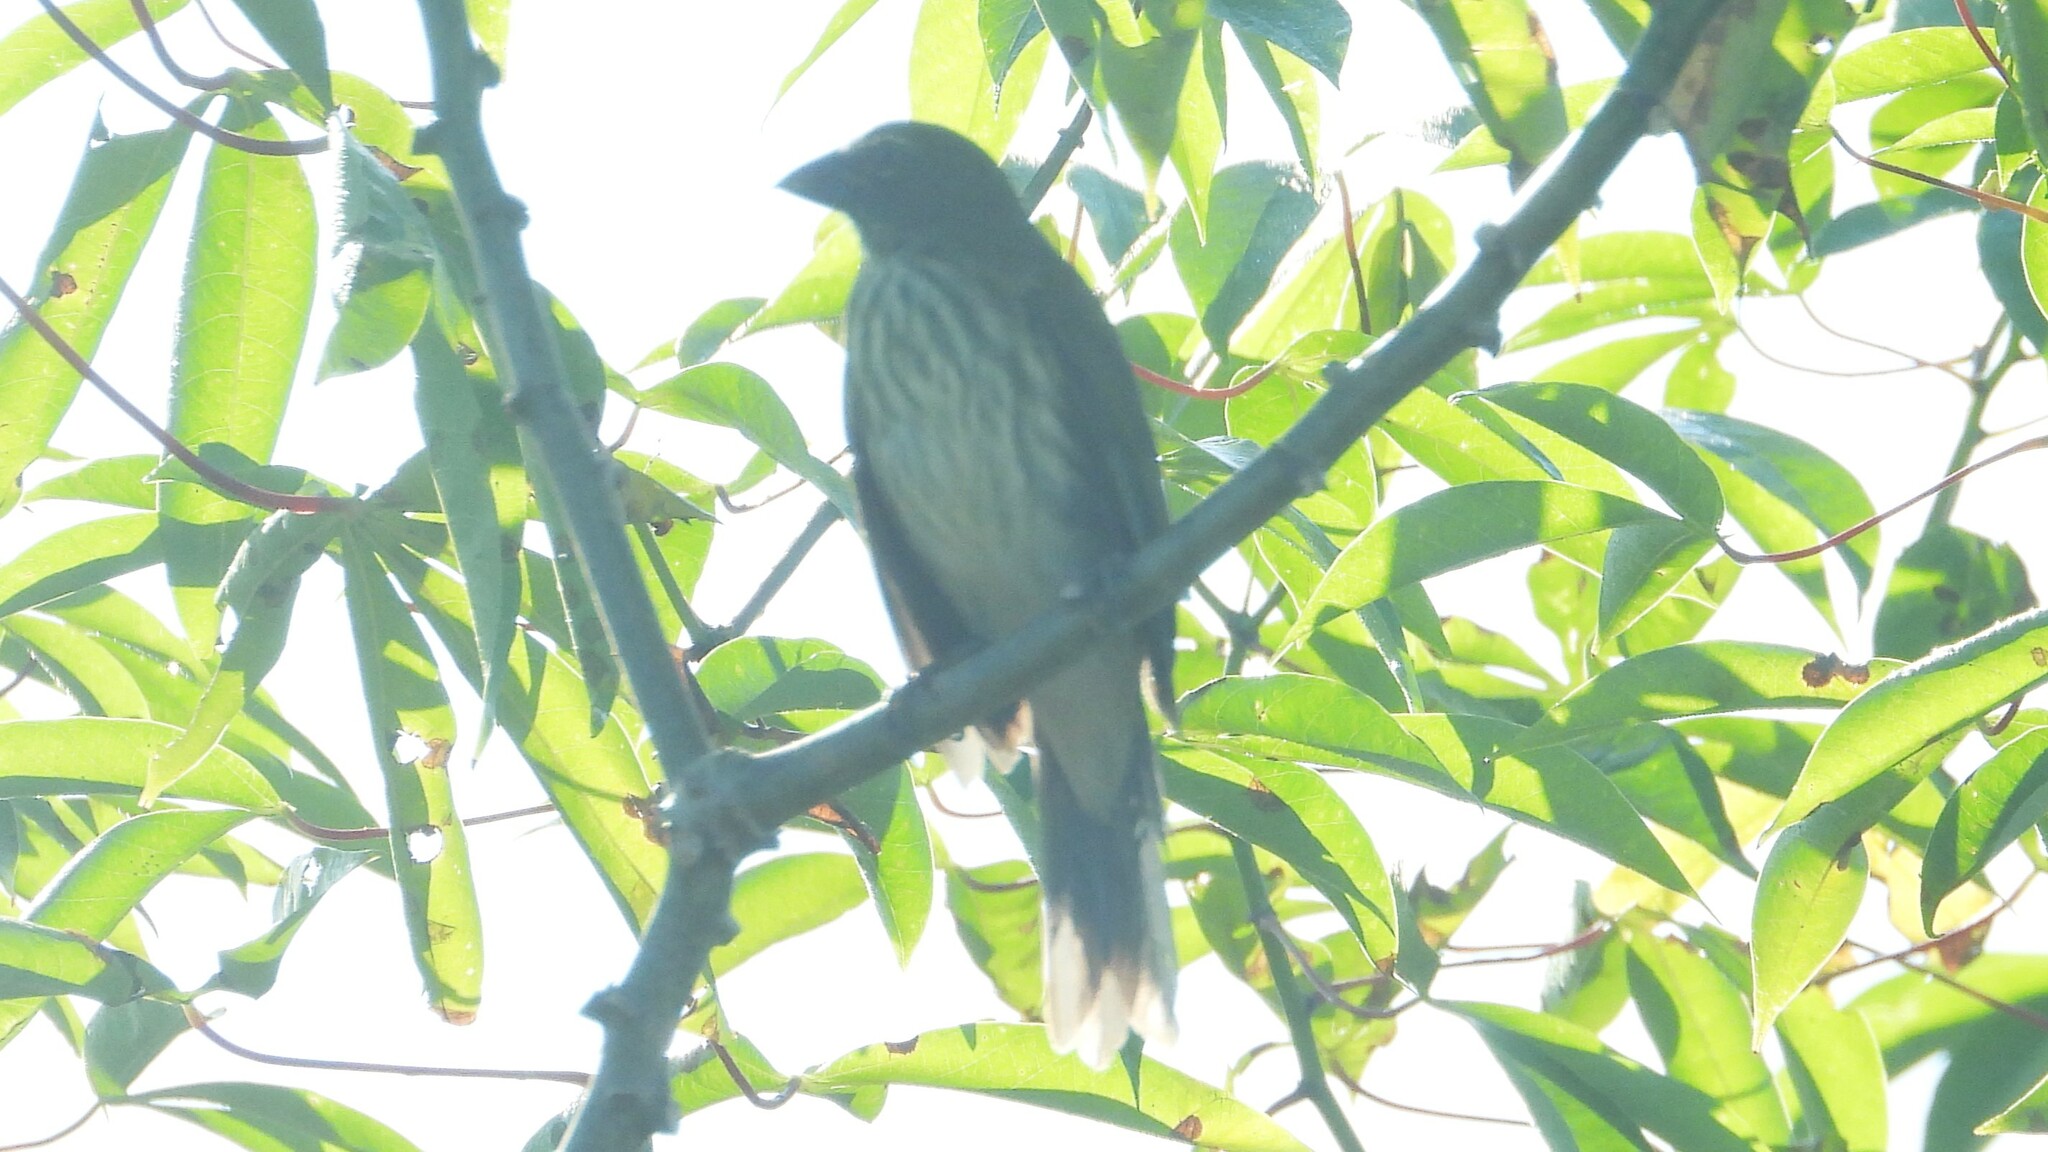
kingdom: Animalia
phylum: Chordata
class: Aves
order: Passeriformes
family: Thraupidae
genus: Saltator
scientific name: Saltator striatipectus
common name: Streaked saltator
